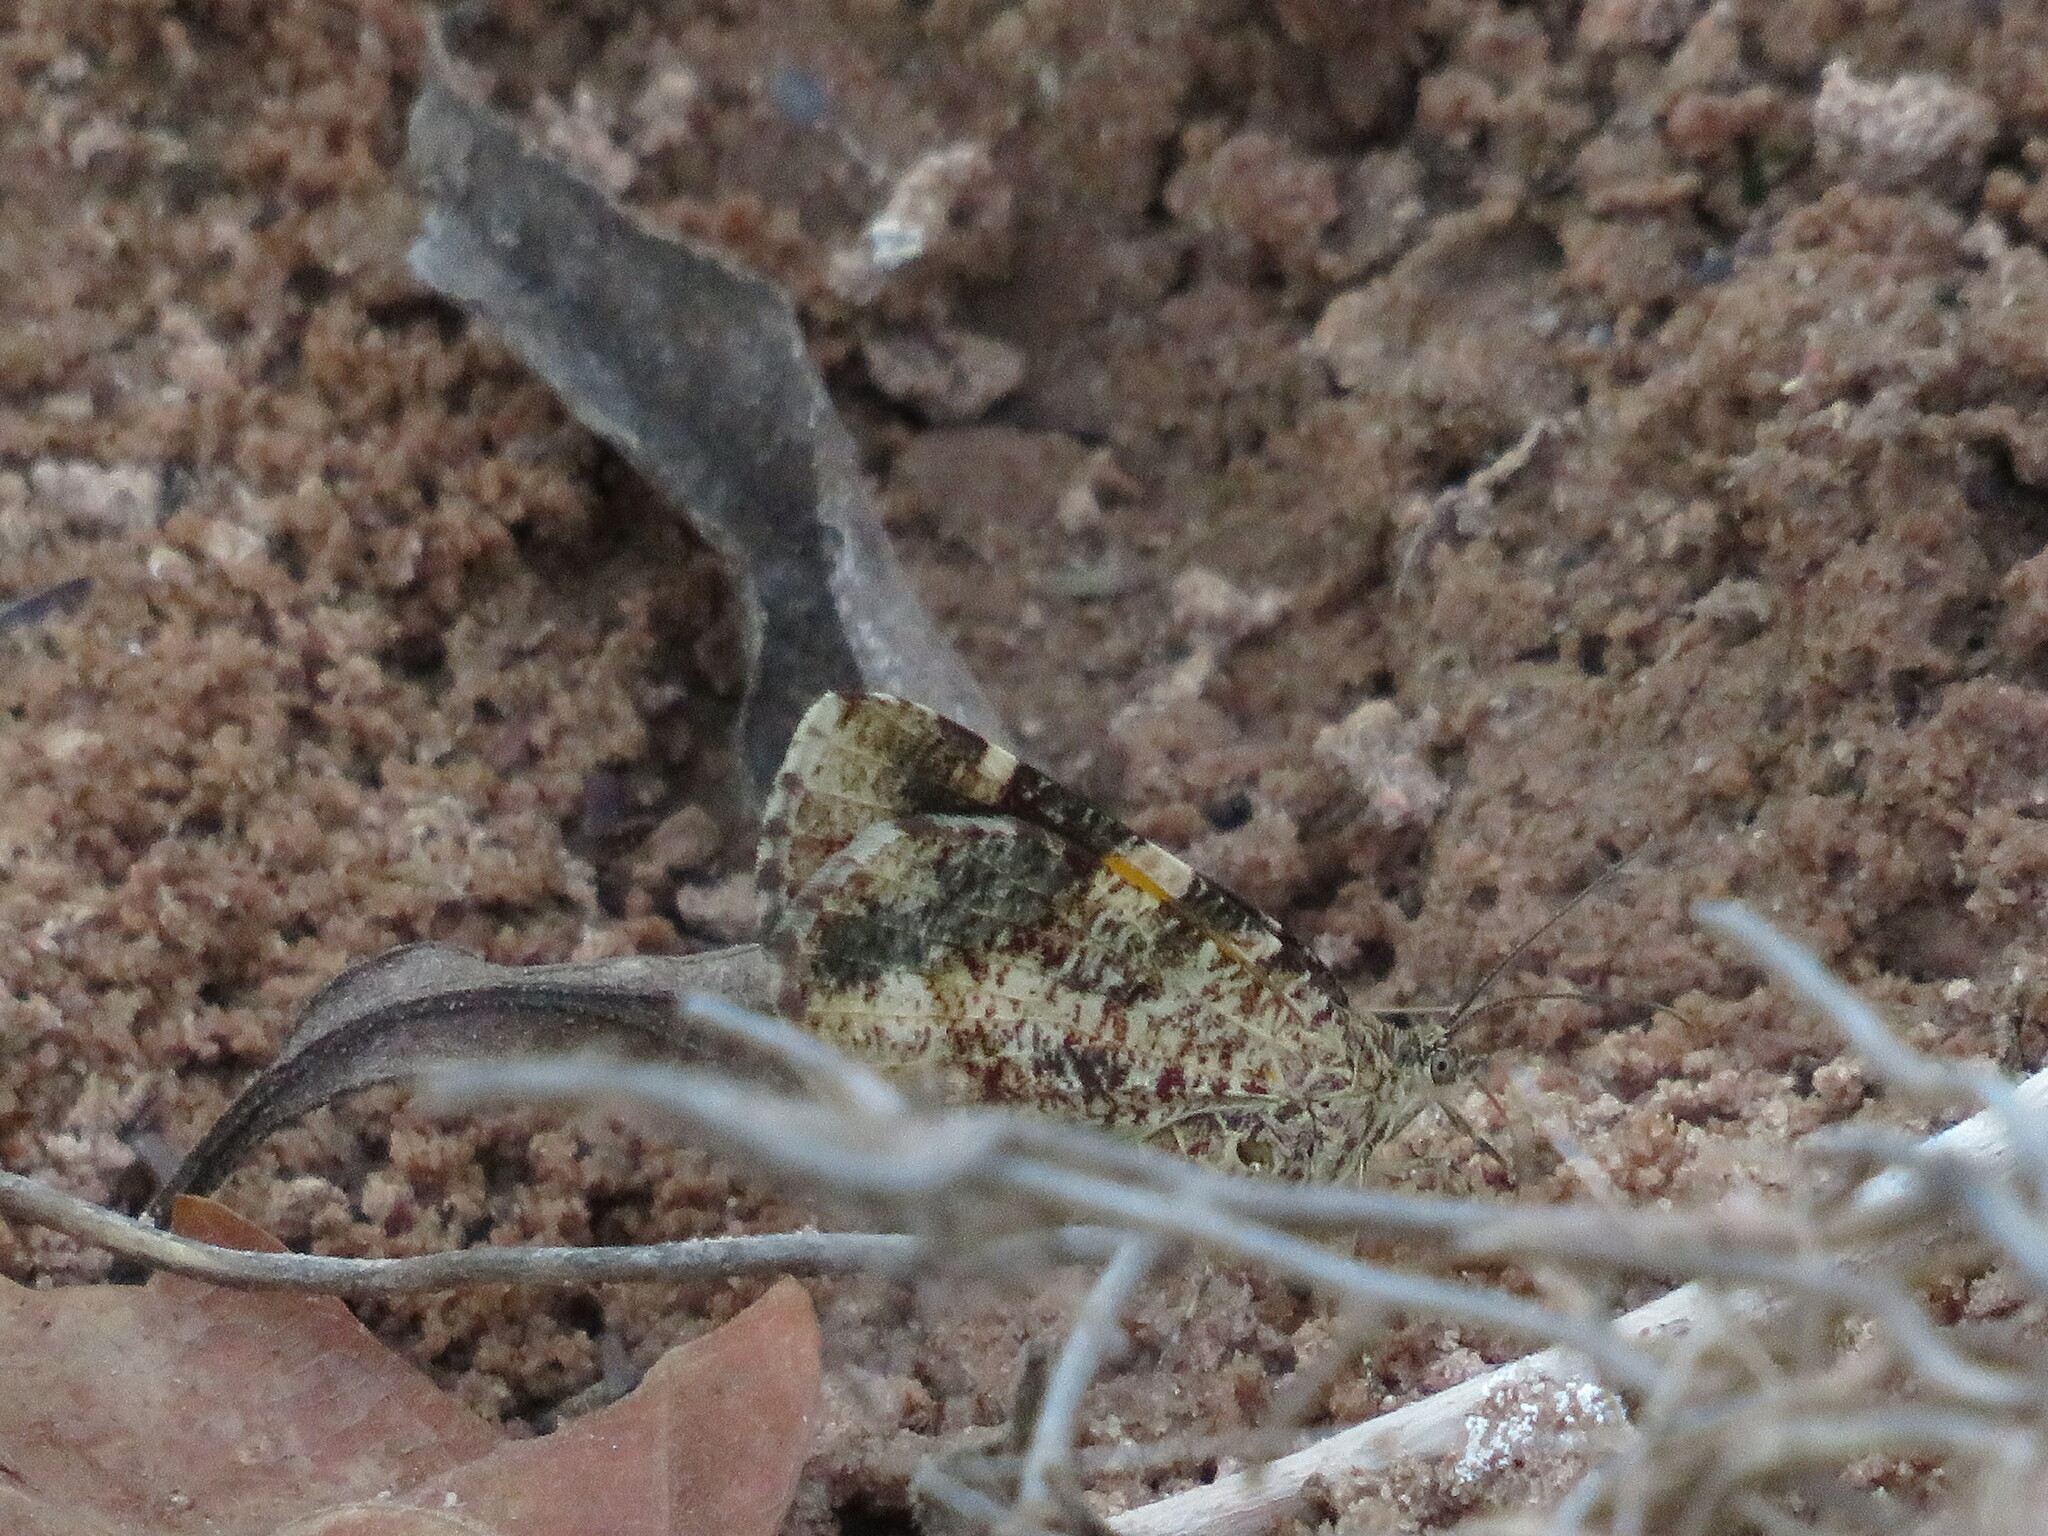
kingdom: Animalia
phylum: Arthropoda
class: Insecta
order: Lepidoptera
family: Geometridae
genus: Heterusia
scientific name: Heterusia quadruplicaria
